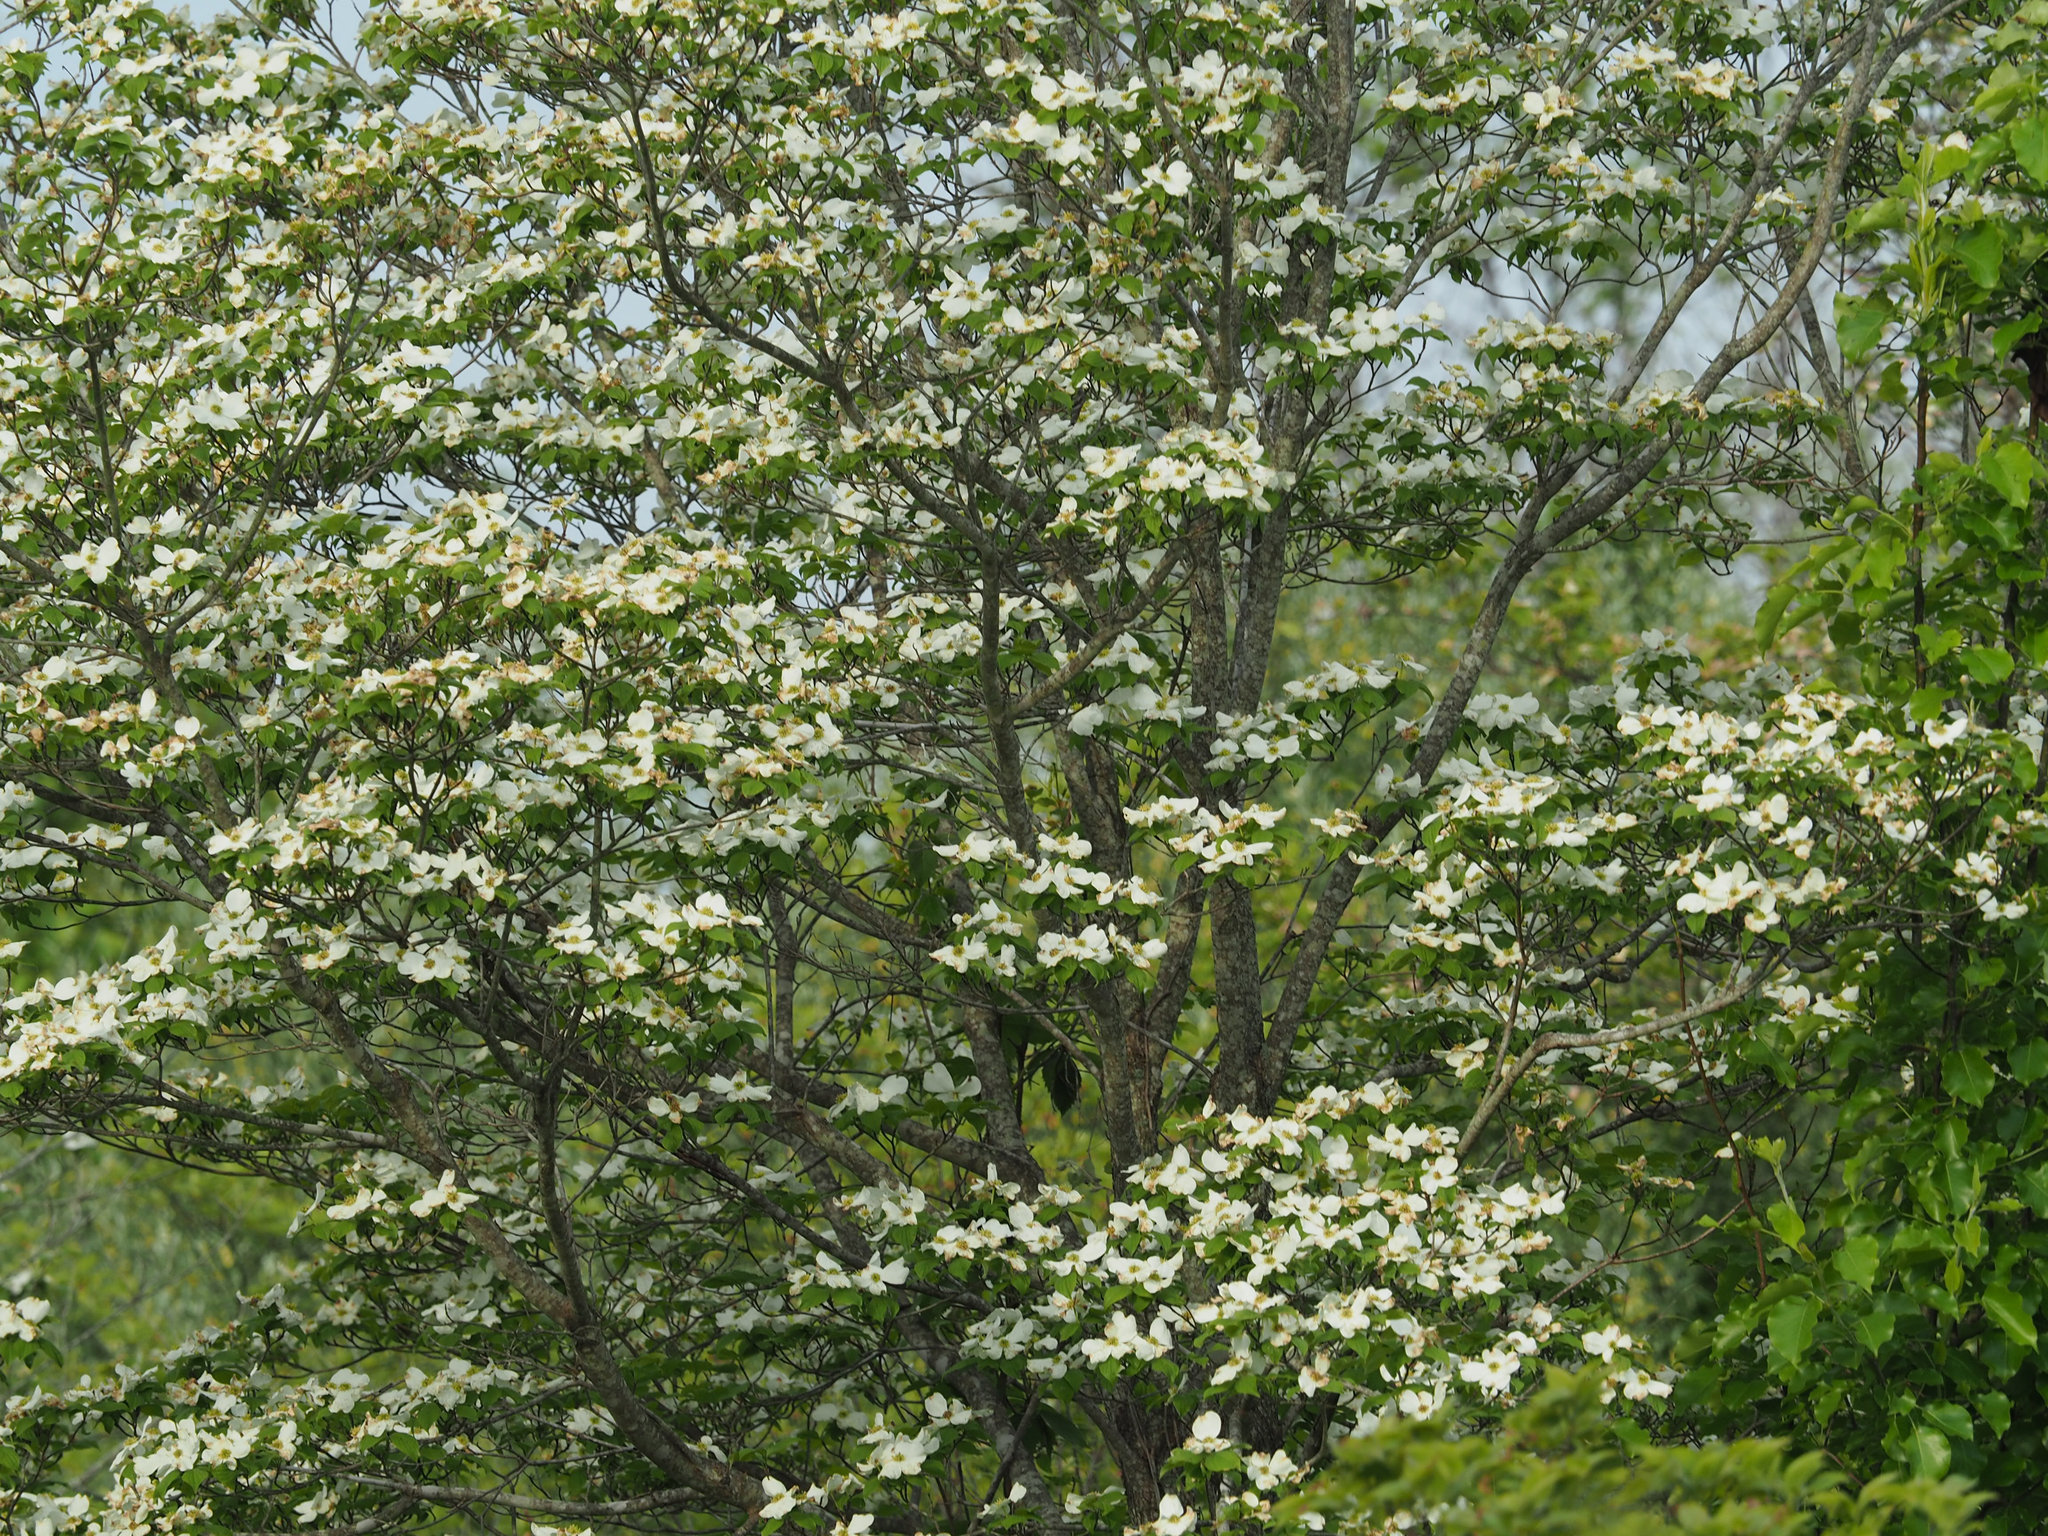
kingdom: Plantae
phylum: Tracheophyta
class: Magnoliopsida
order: Cornales
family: Cornaceae
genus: Cornus
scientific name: Cornus florida
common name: Flowering dogwood
